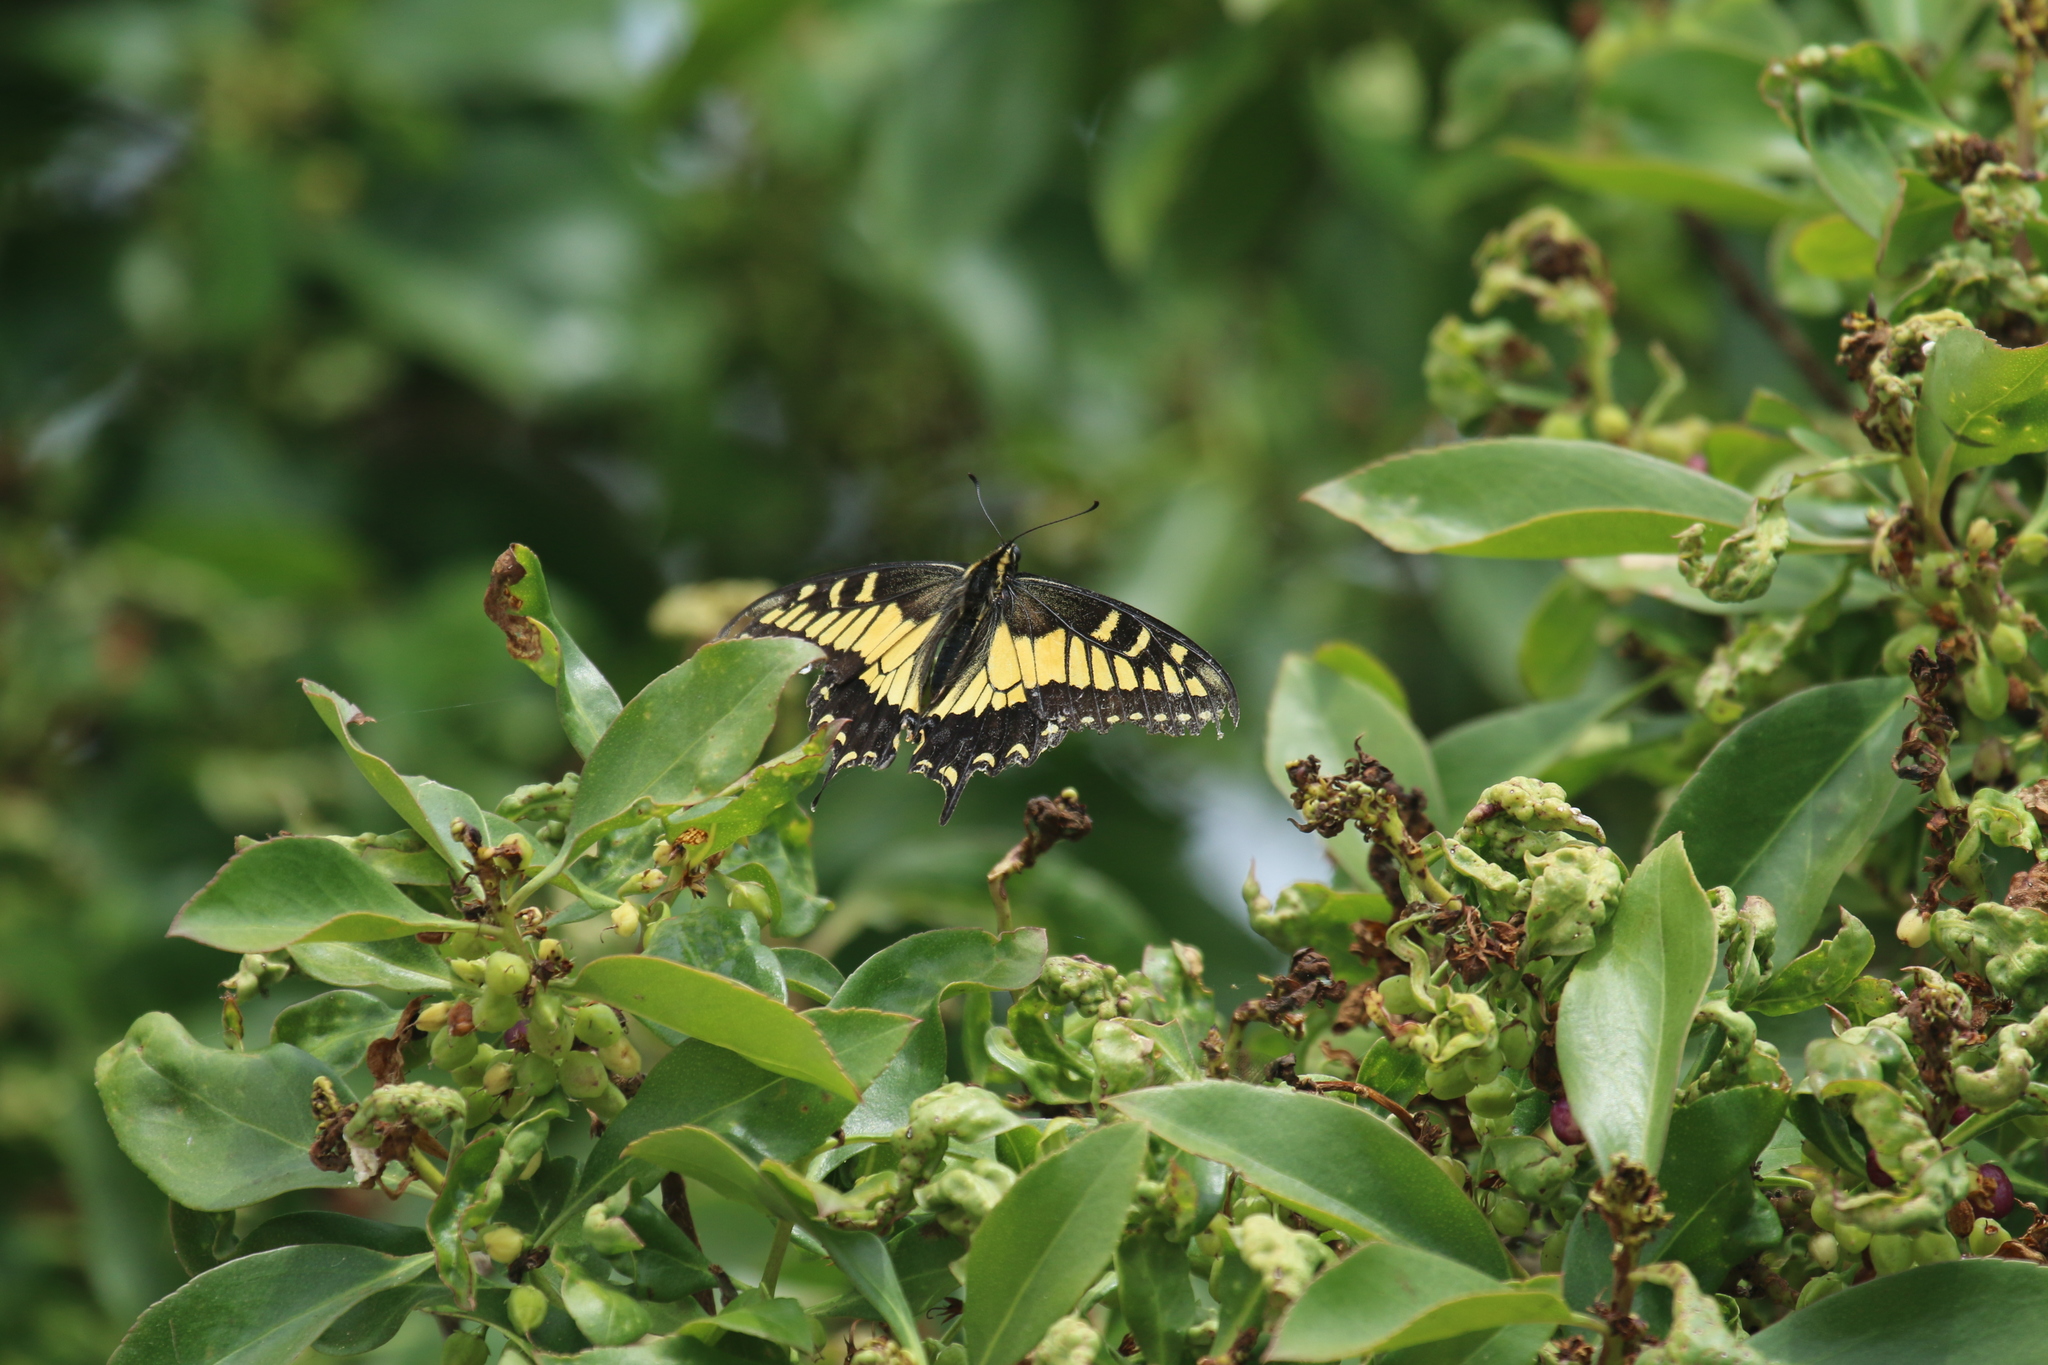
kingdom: Animalia
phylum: Arthropoda
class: Insecta
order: Lepidoptera
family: Papilionidae
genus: Papilio
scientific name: Papilio zelicaon
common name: Anise swallowtail
